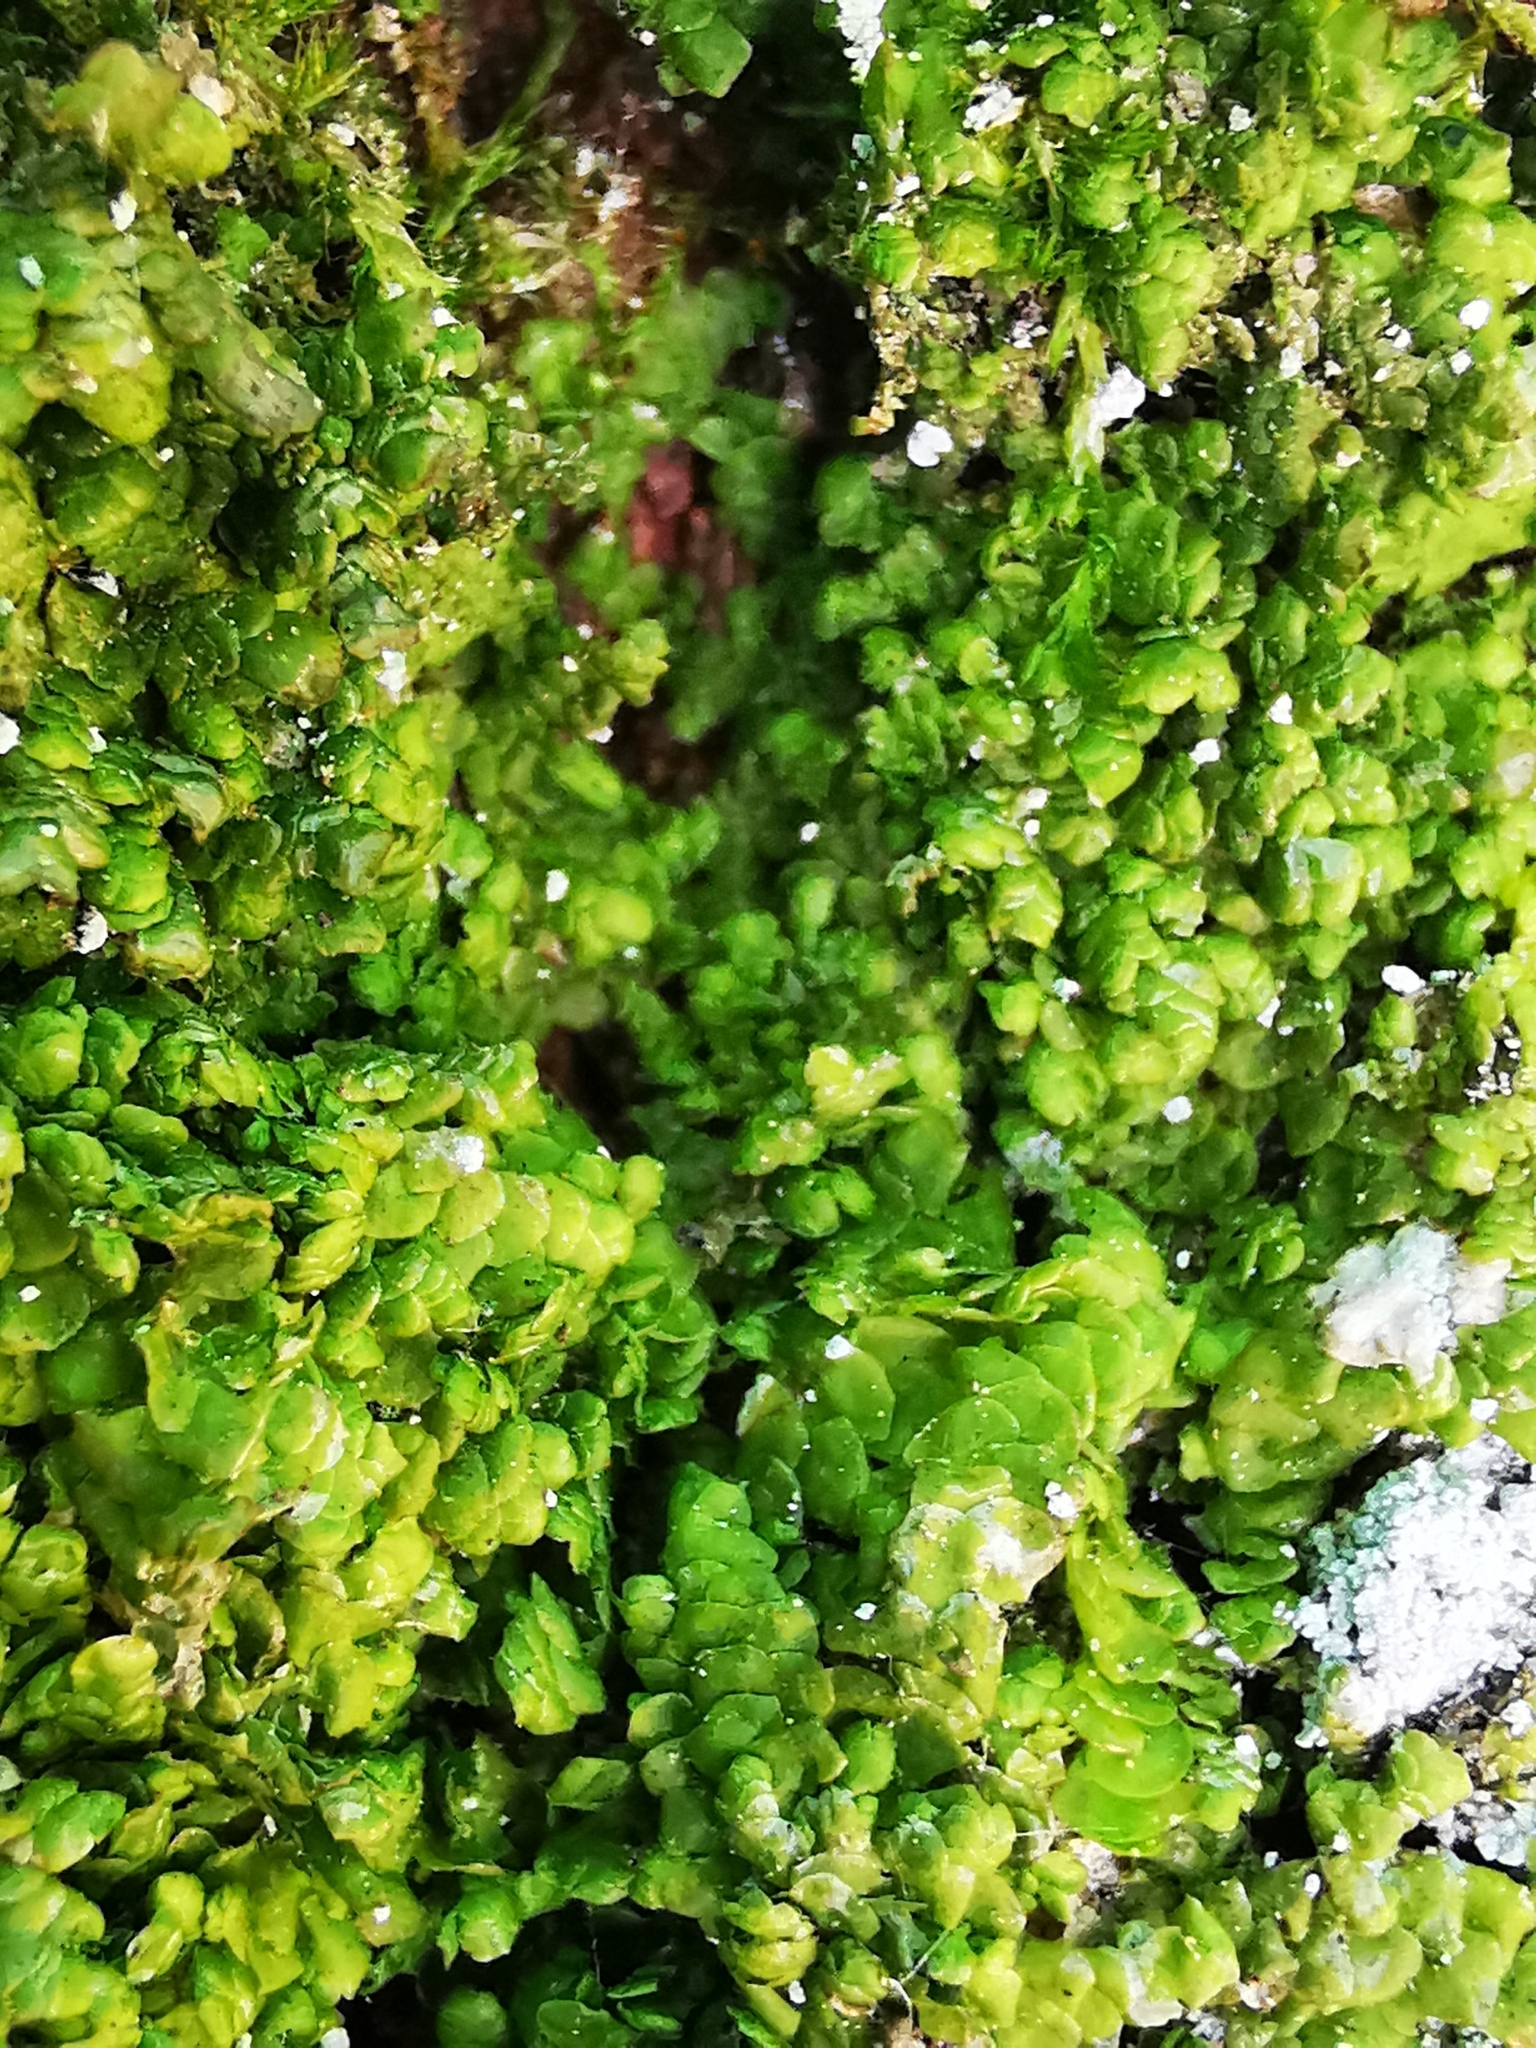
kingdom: Plantae
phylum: Marchantiophyta
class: Jungermanniopsida
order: Porellales
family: Radulaceae
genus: Radula
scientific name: Radula complanata
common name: Flat-leaved scalewort
